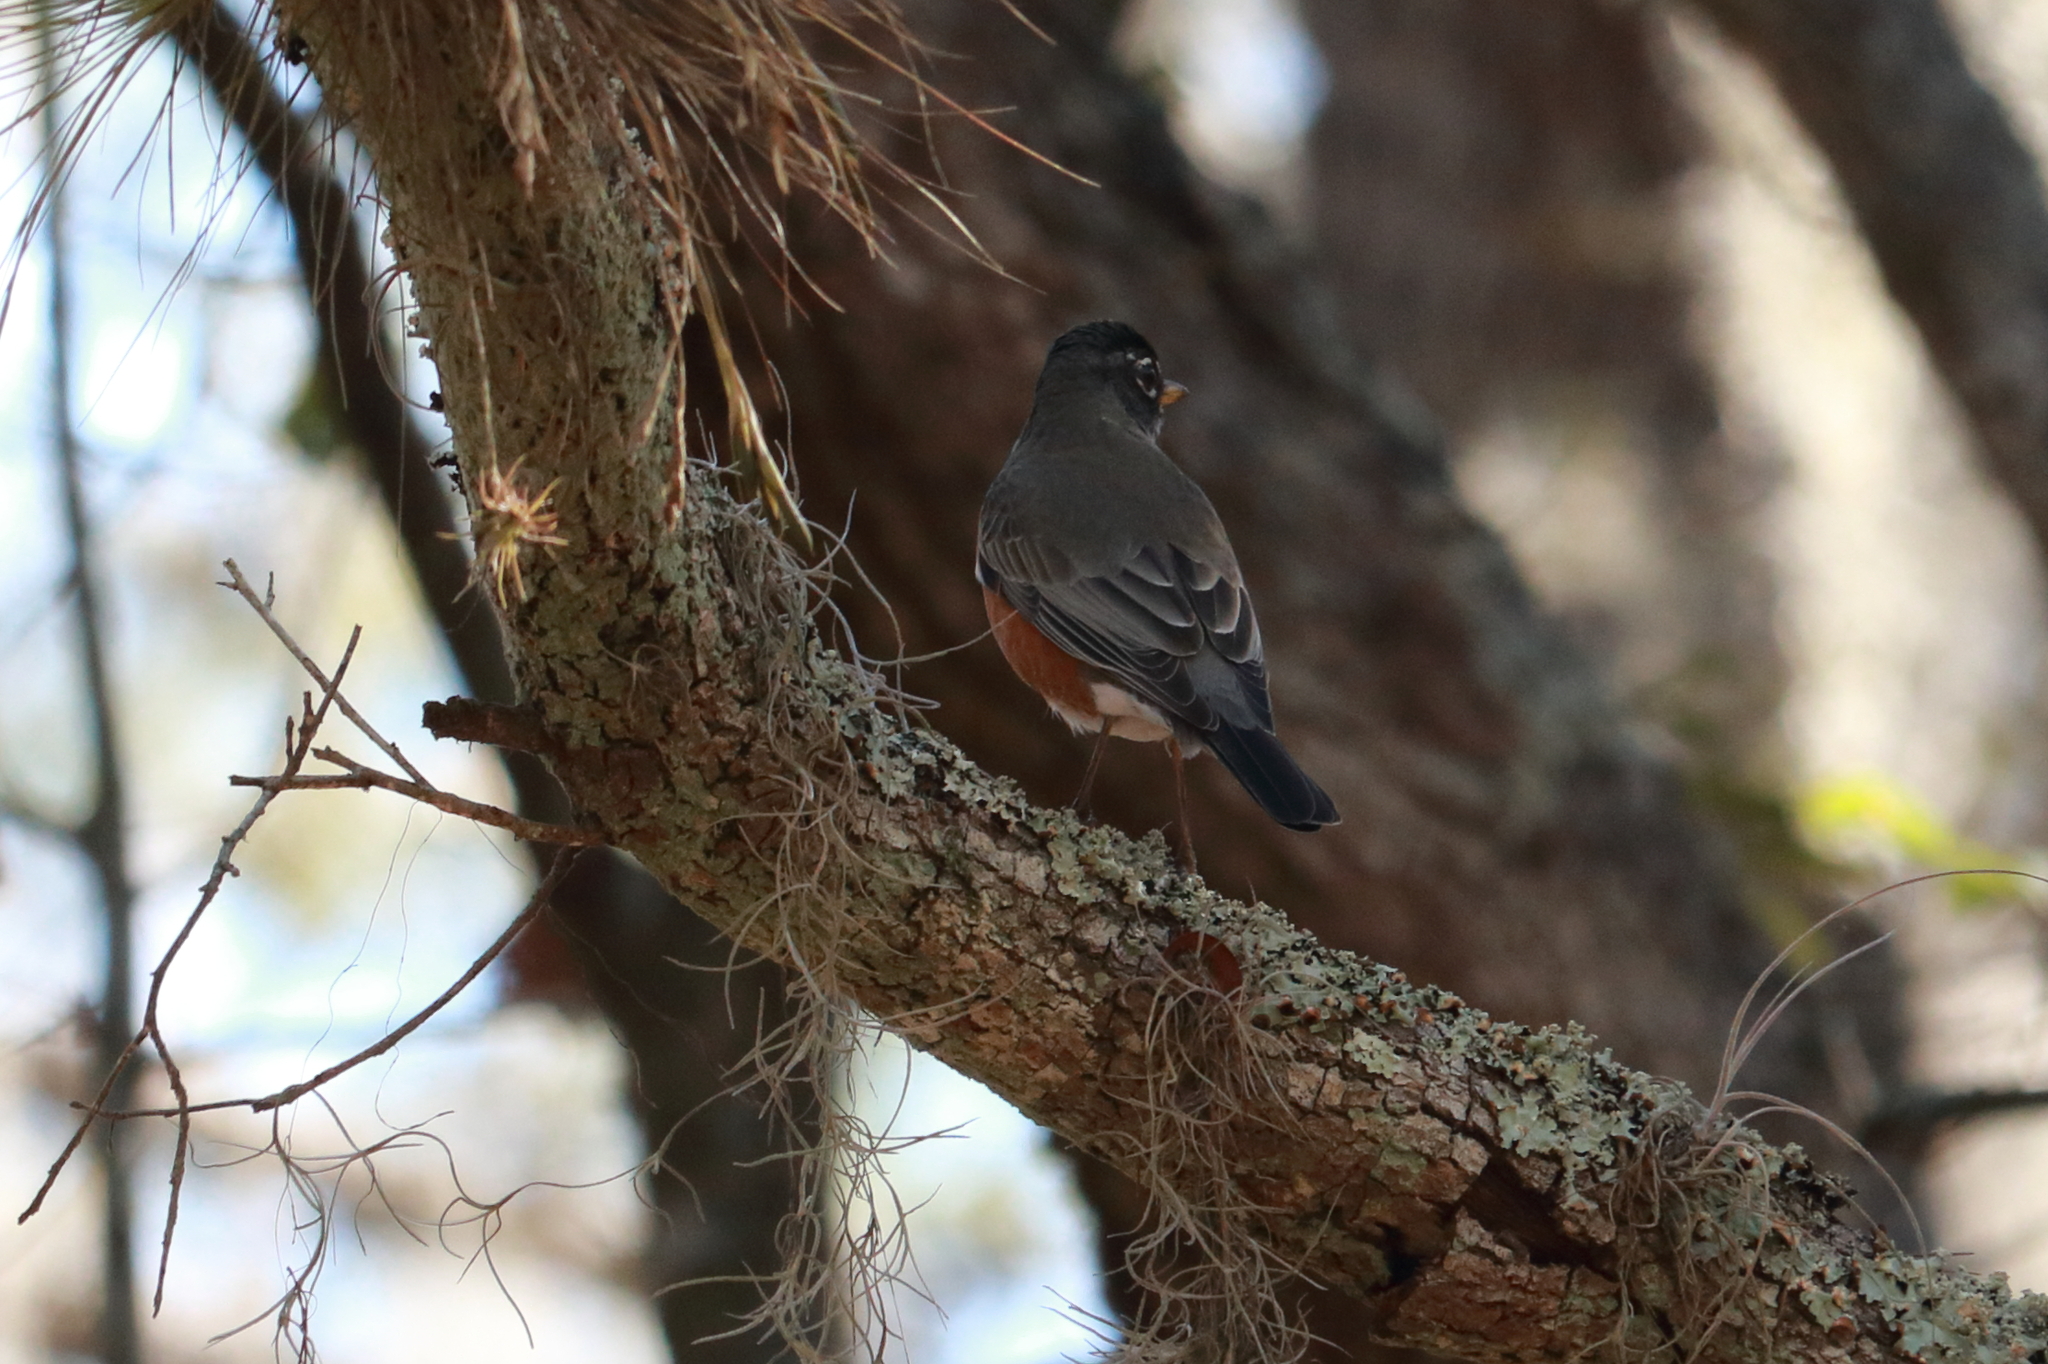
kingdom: Animalia
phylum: Chordata
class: Aves
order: Passeriformes
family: Turdidae
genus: Turdus
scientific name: Turdus migratorius
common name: American robin
